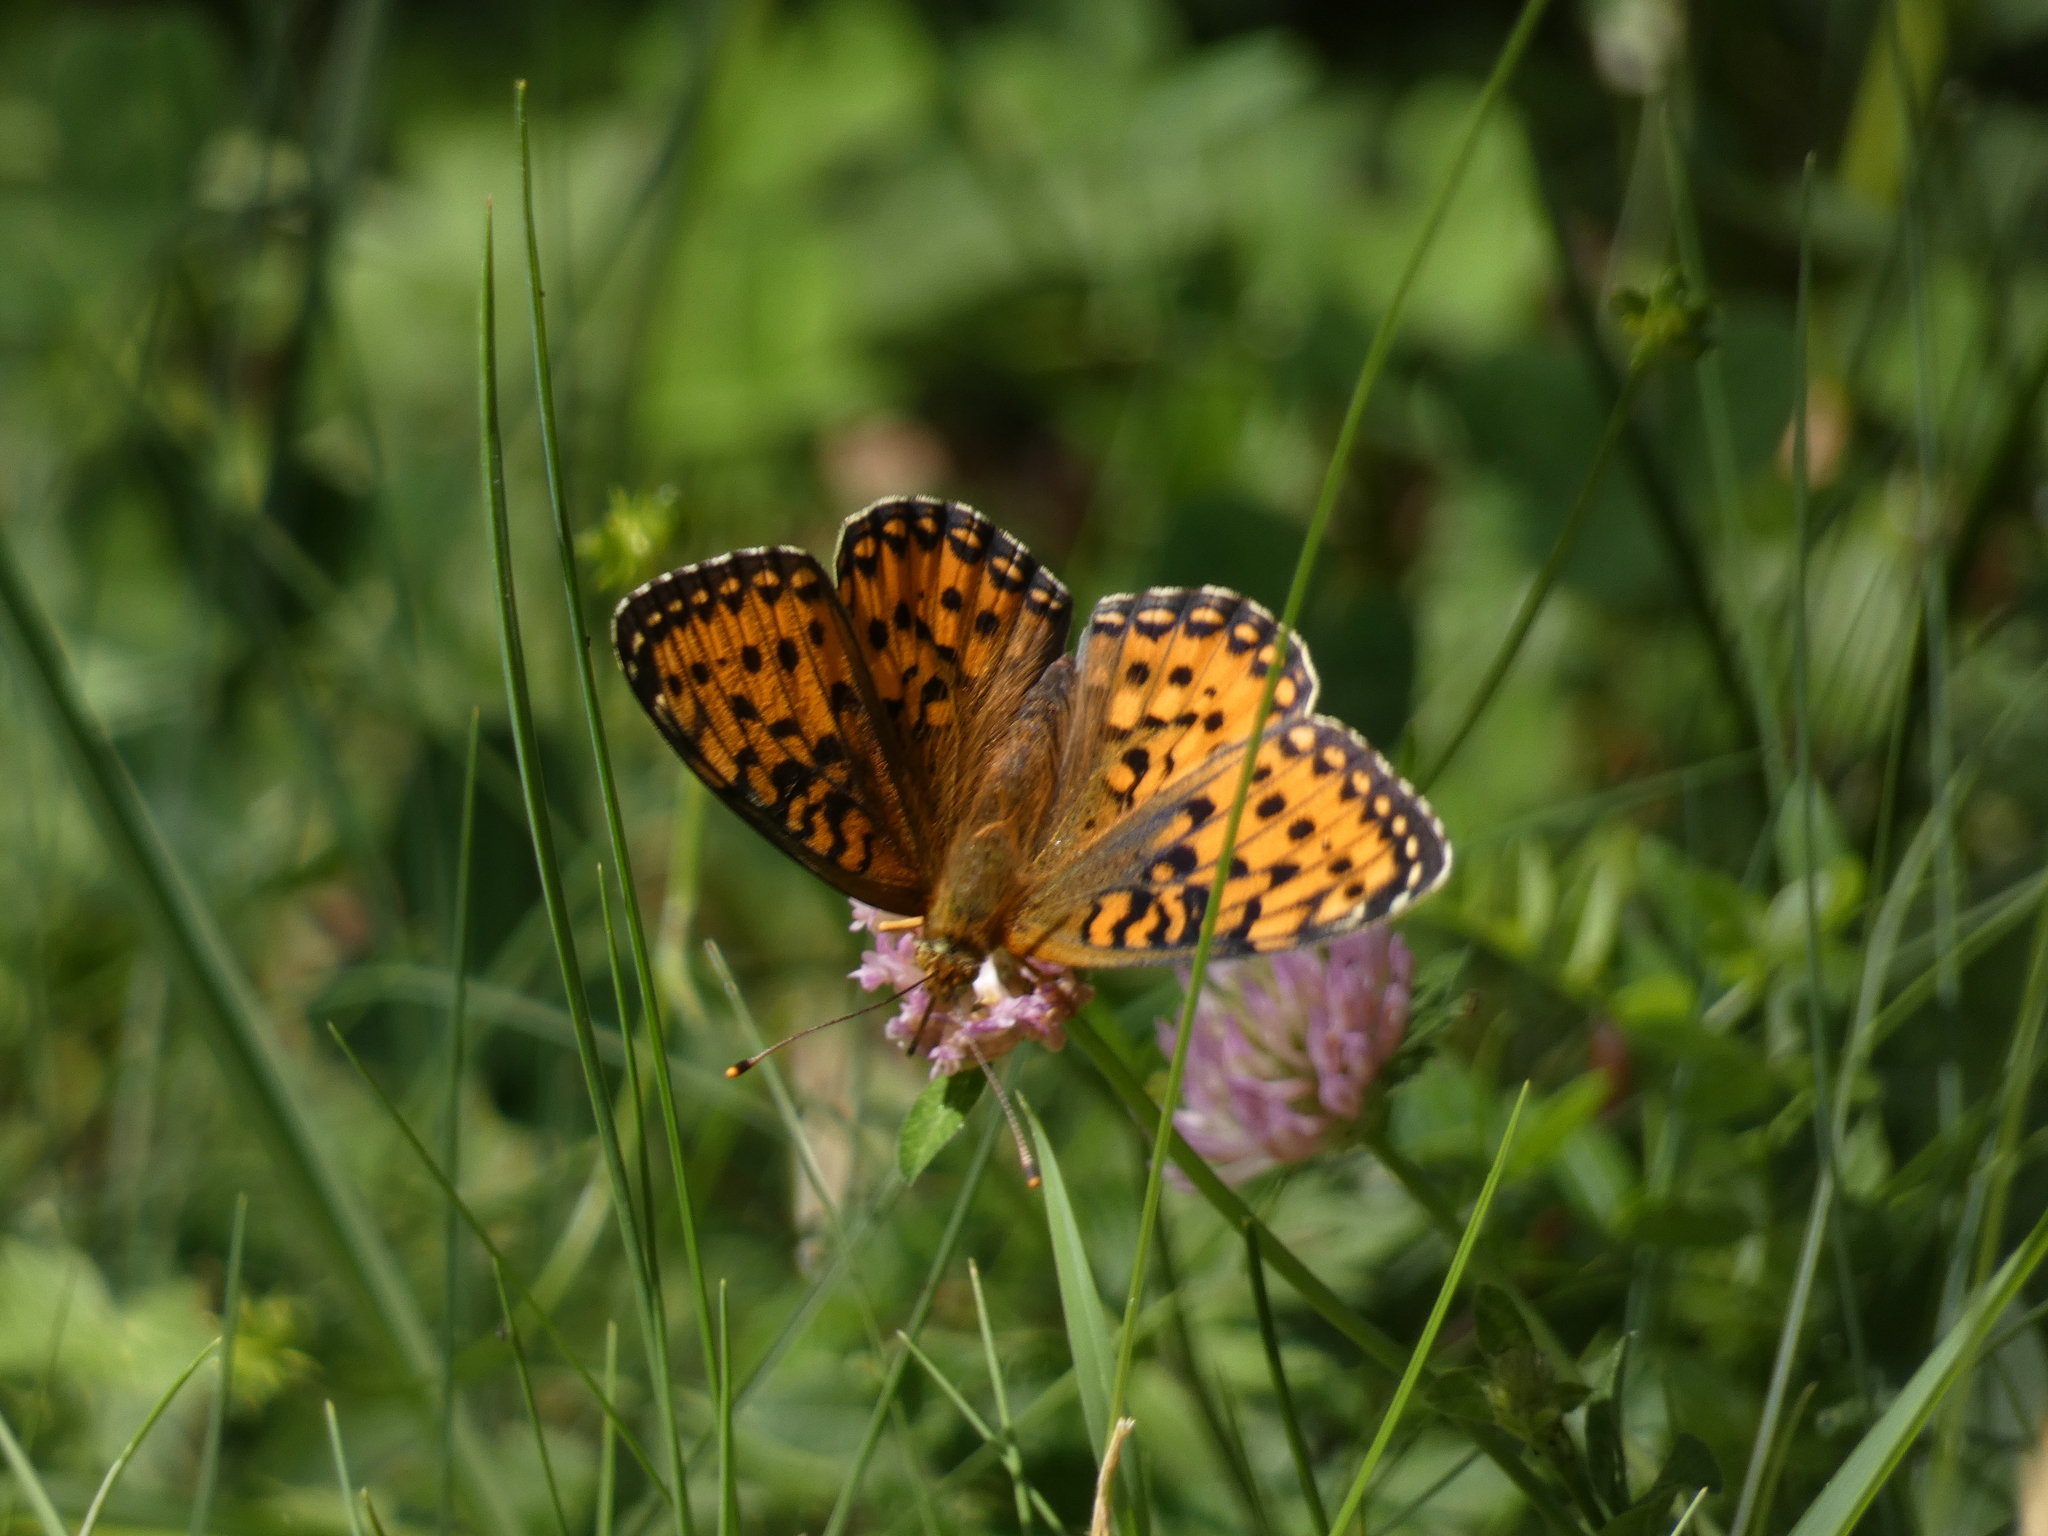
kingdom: Animalia
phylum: Arthropoda
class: Insecta
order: Lepidoptera
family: Nymphalidae
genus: Speyeria
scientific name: Speyeria aglaja
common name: Dark green fritillary
